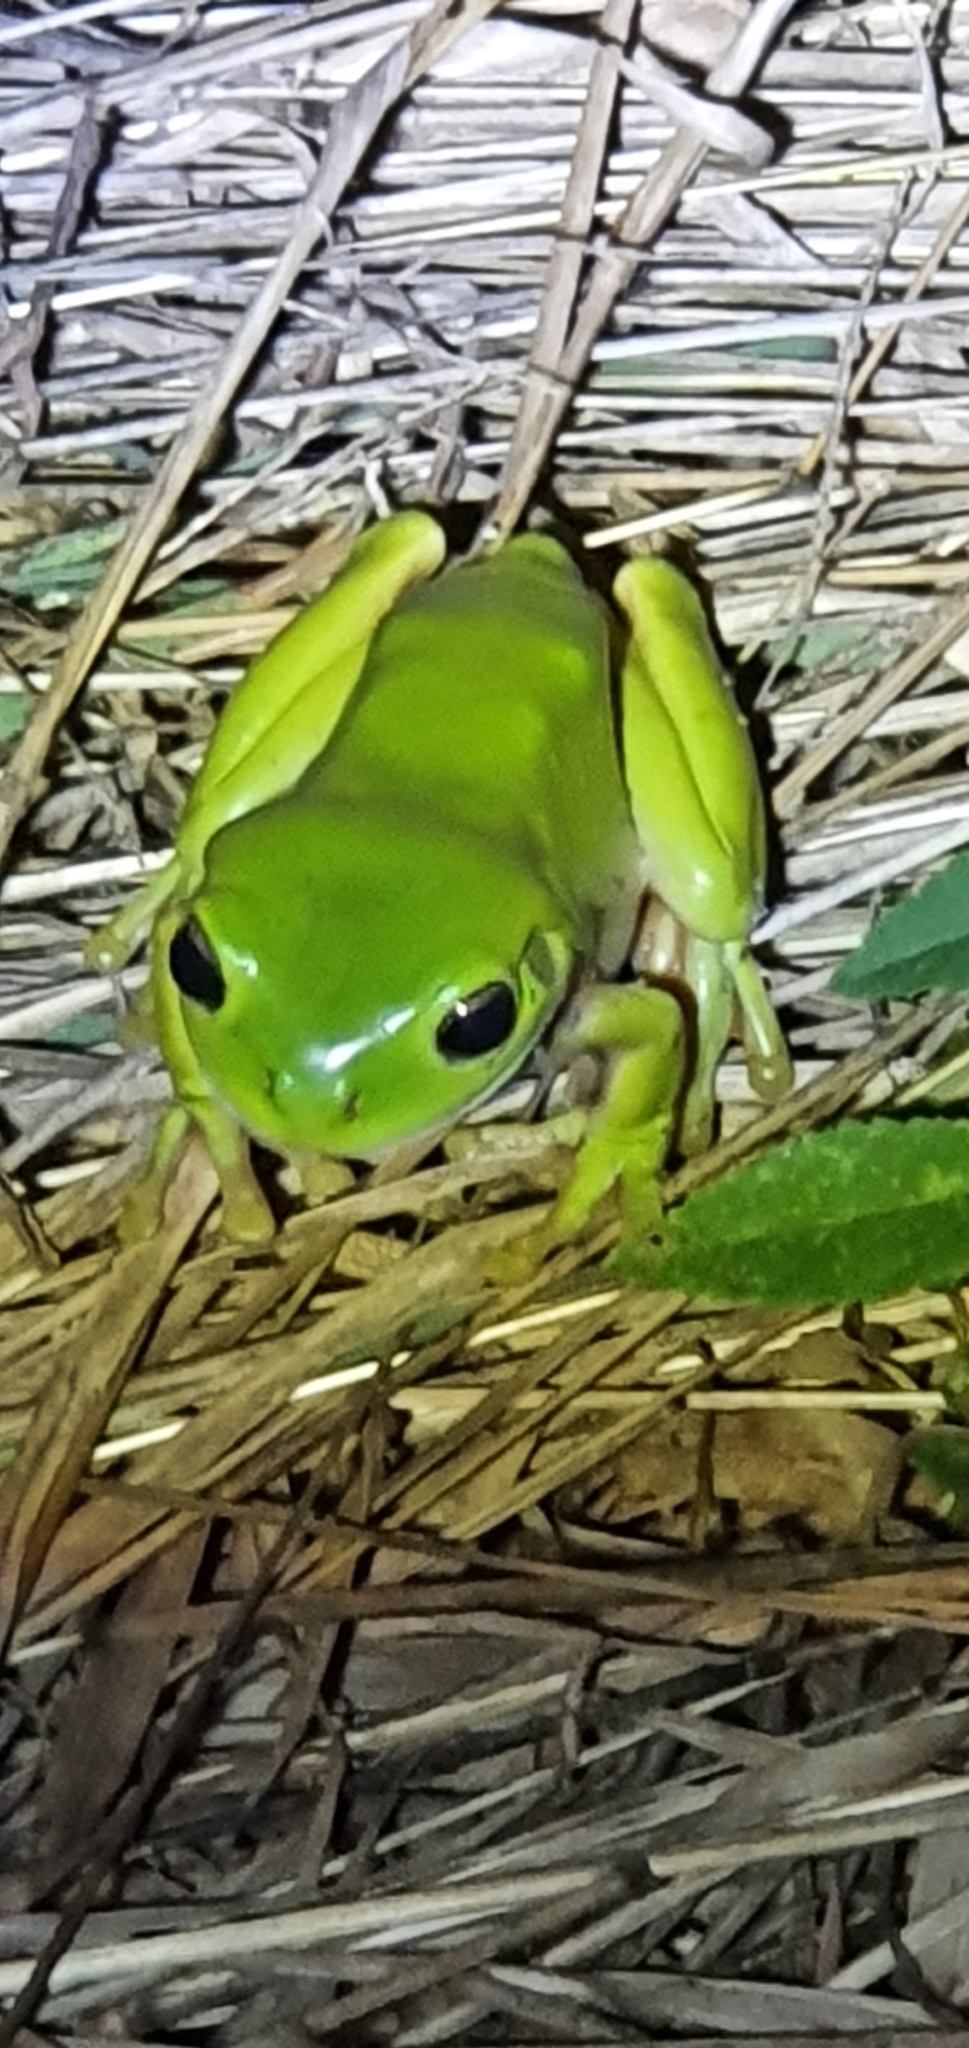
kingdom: Animalia
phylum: Chordata
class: Amphibia
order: Anura
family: Pelodryadidae
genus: Ranoidea
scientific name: Ranoidea caerulea
